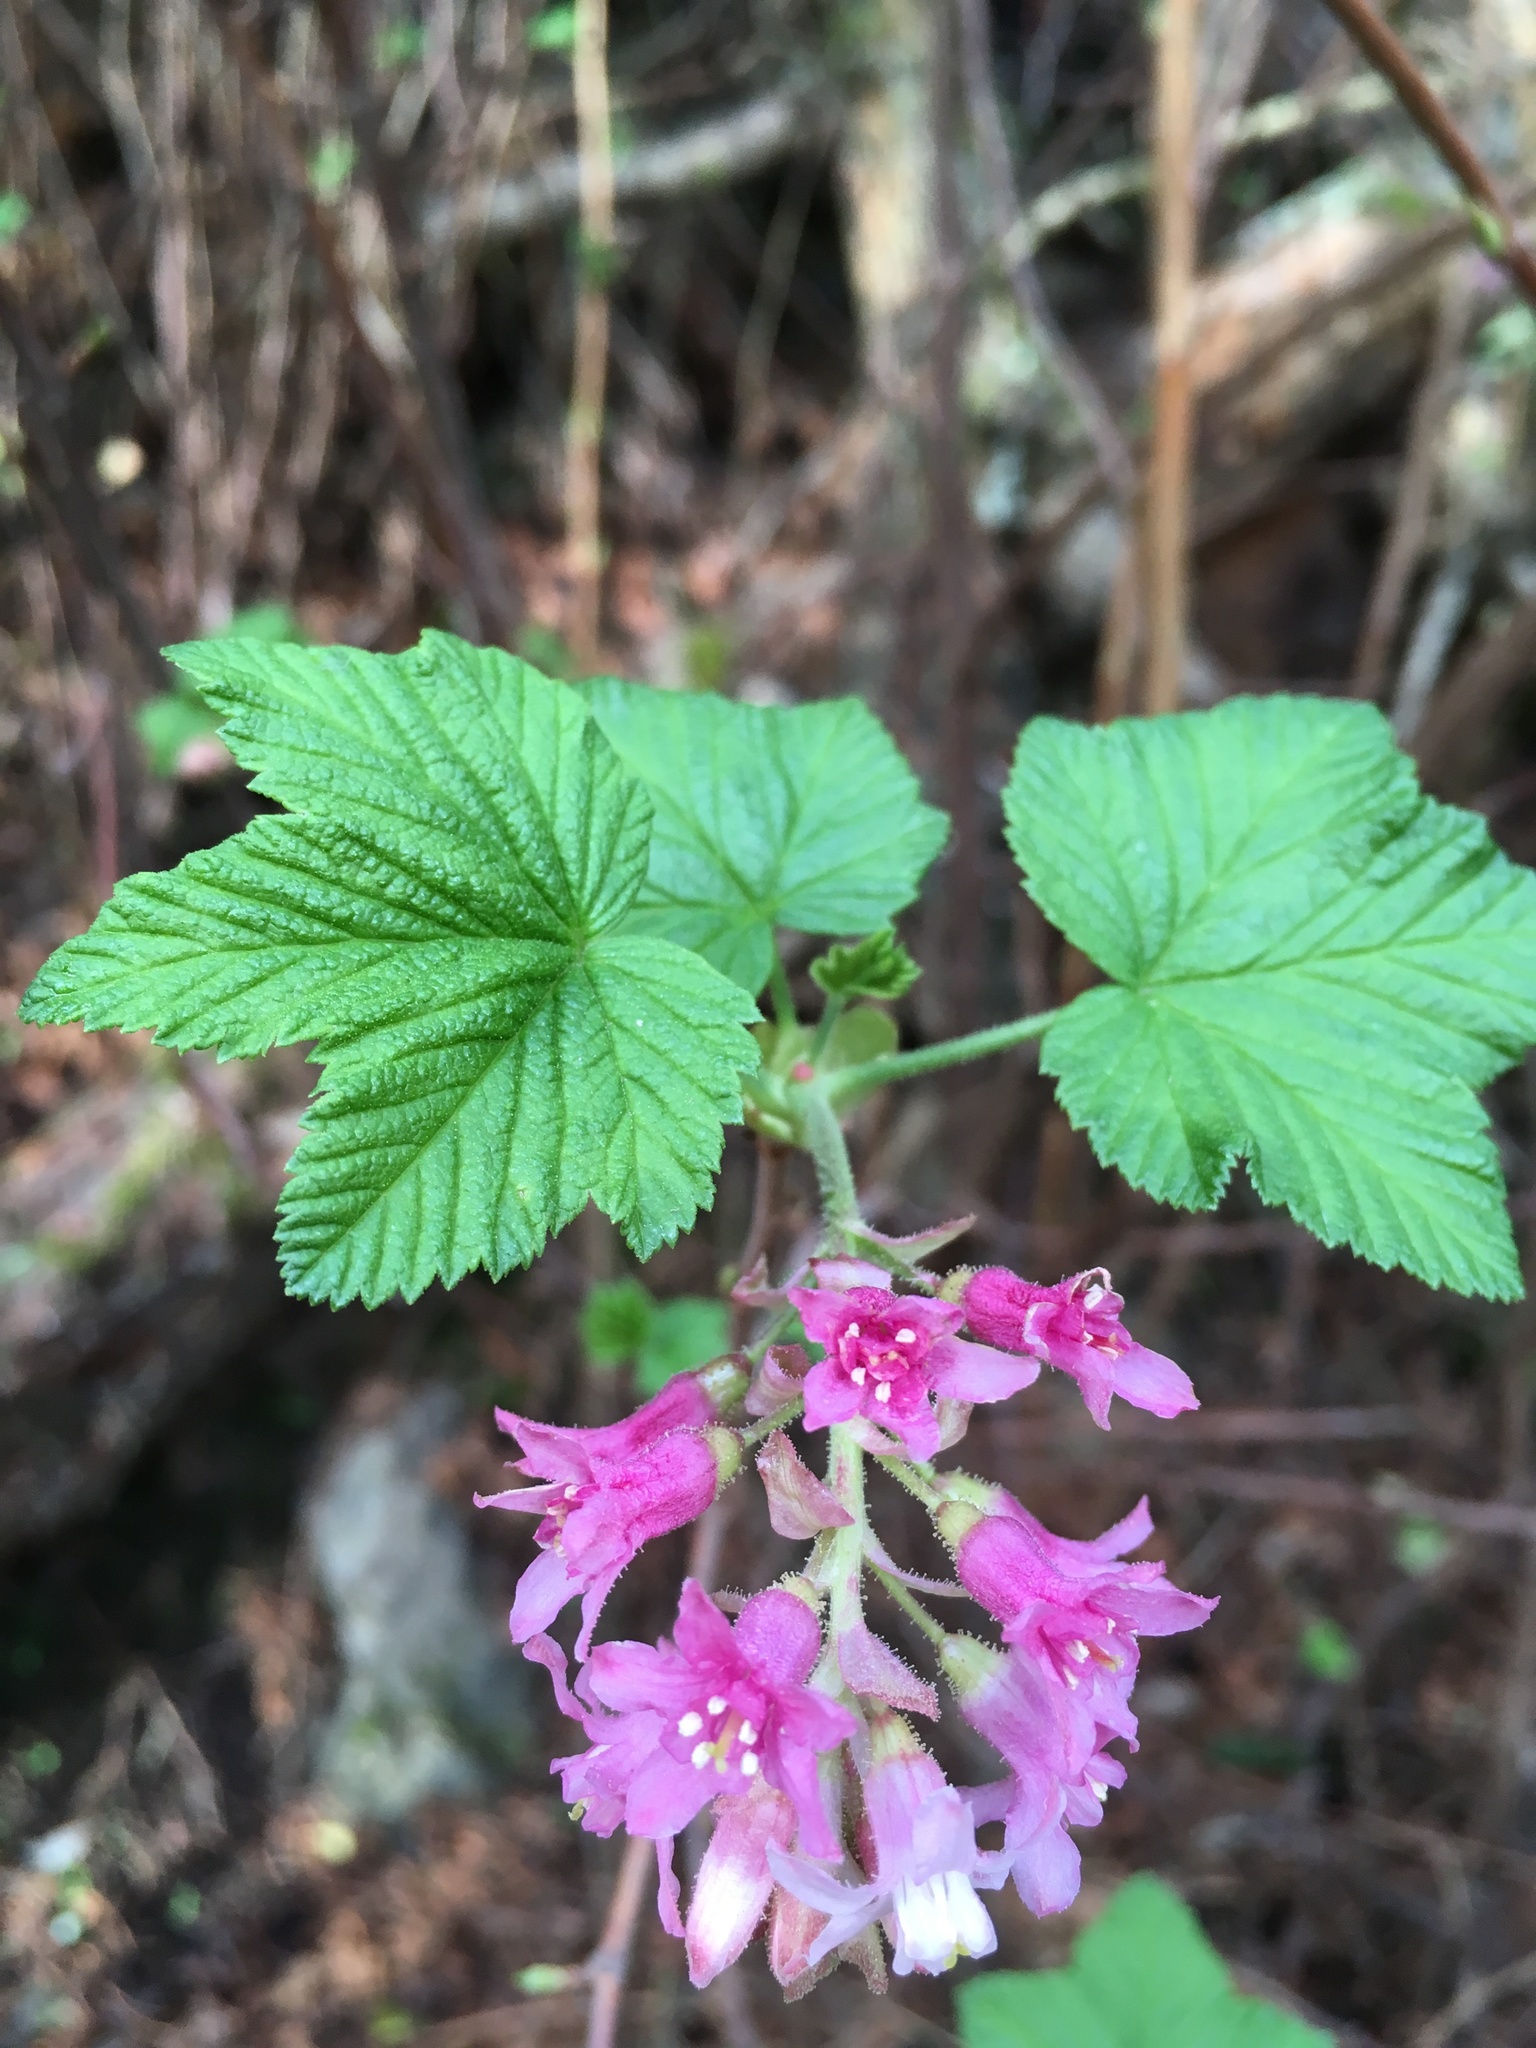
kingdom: Plantae
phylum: Tracheophyta
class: Magnoliopsida
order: Saxifragales
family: Grossulariaceae
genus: Ribes
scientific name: Ribes sanguineum
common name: Flowering currant
